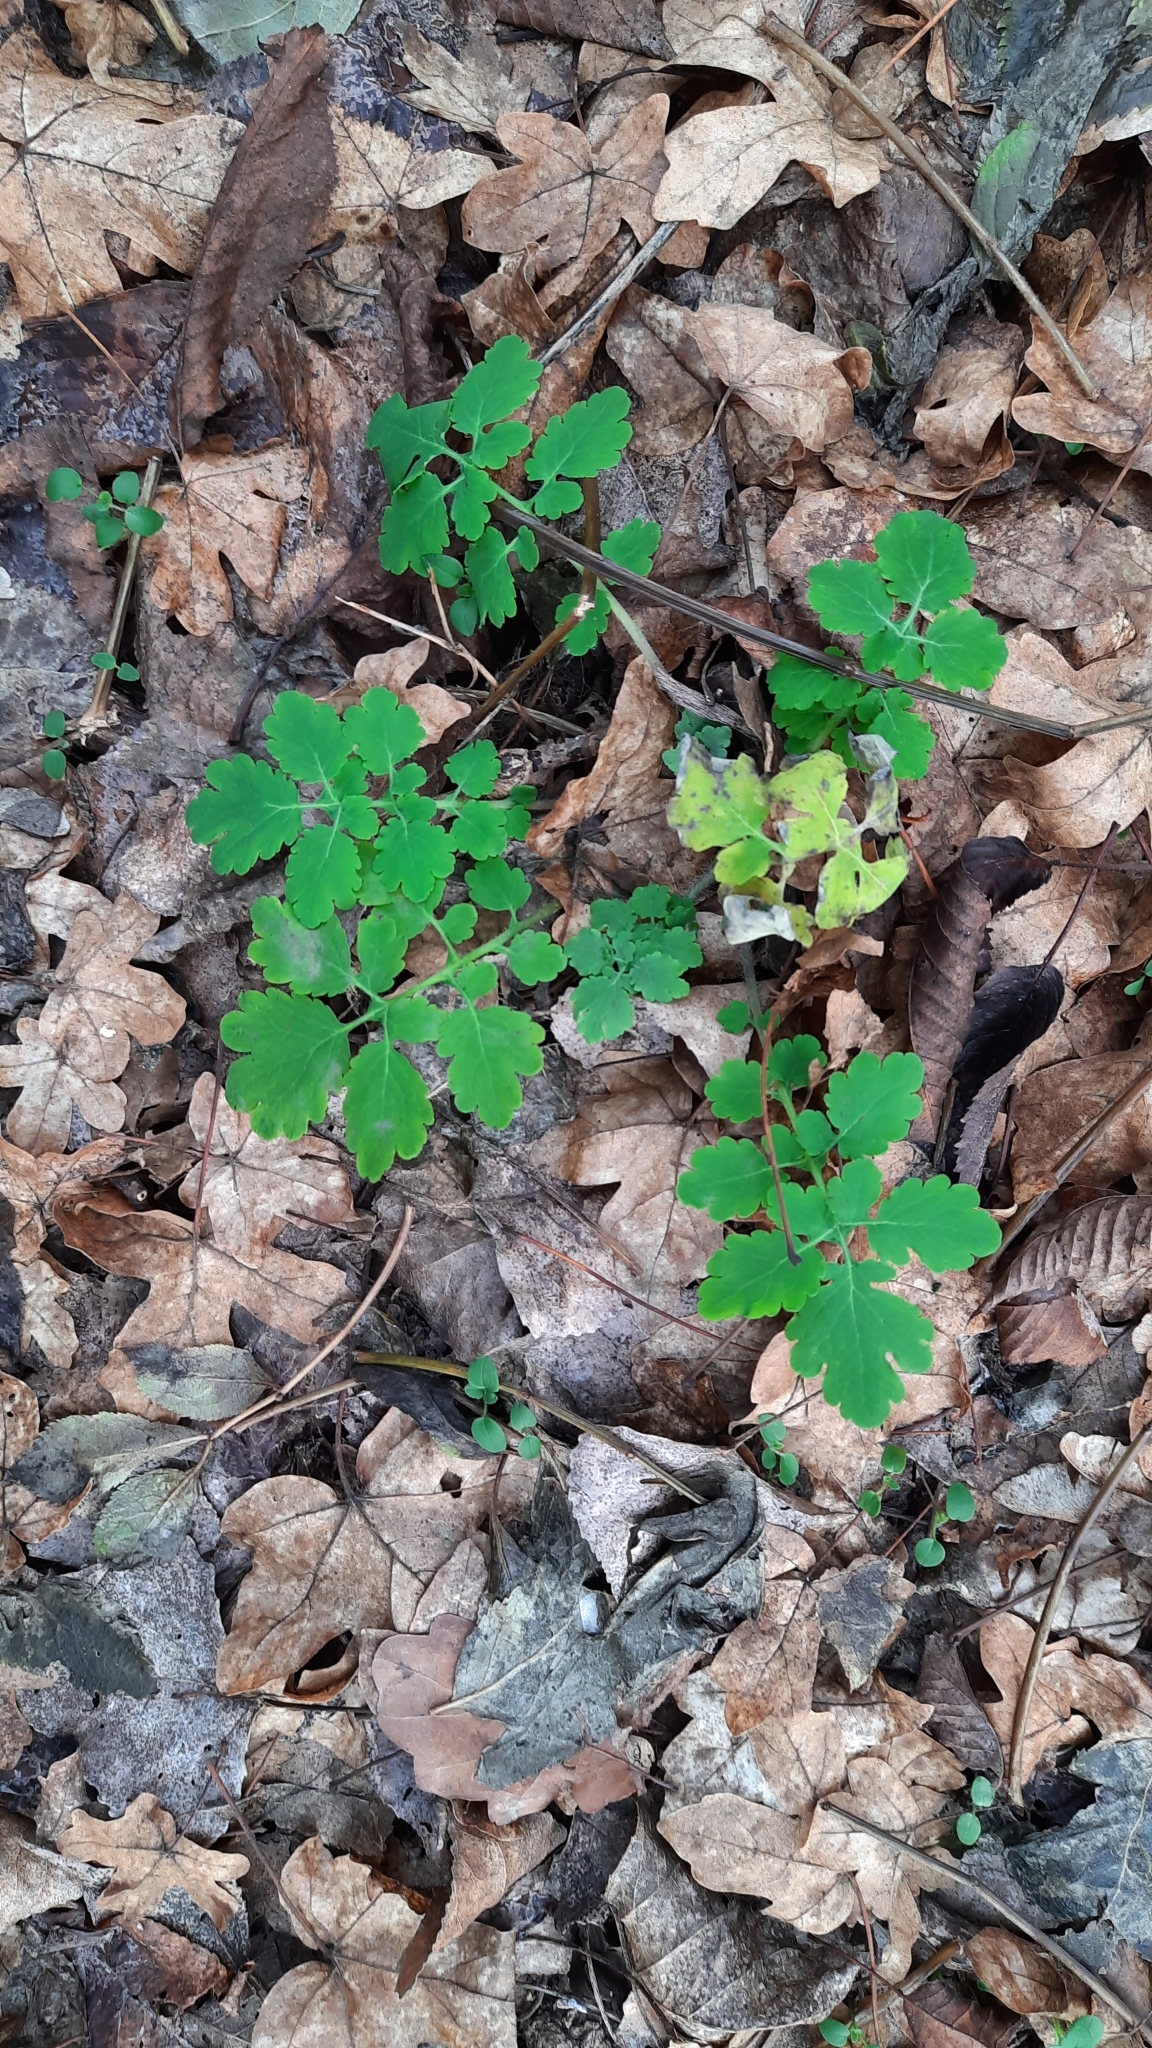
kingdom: Plantae
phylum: Tracheophyta
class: Magnoliopsida
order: Ranunculales
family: Papaveraceae
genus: Chelidonium
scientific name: Chelidonium majus
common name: Greater celandine
